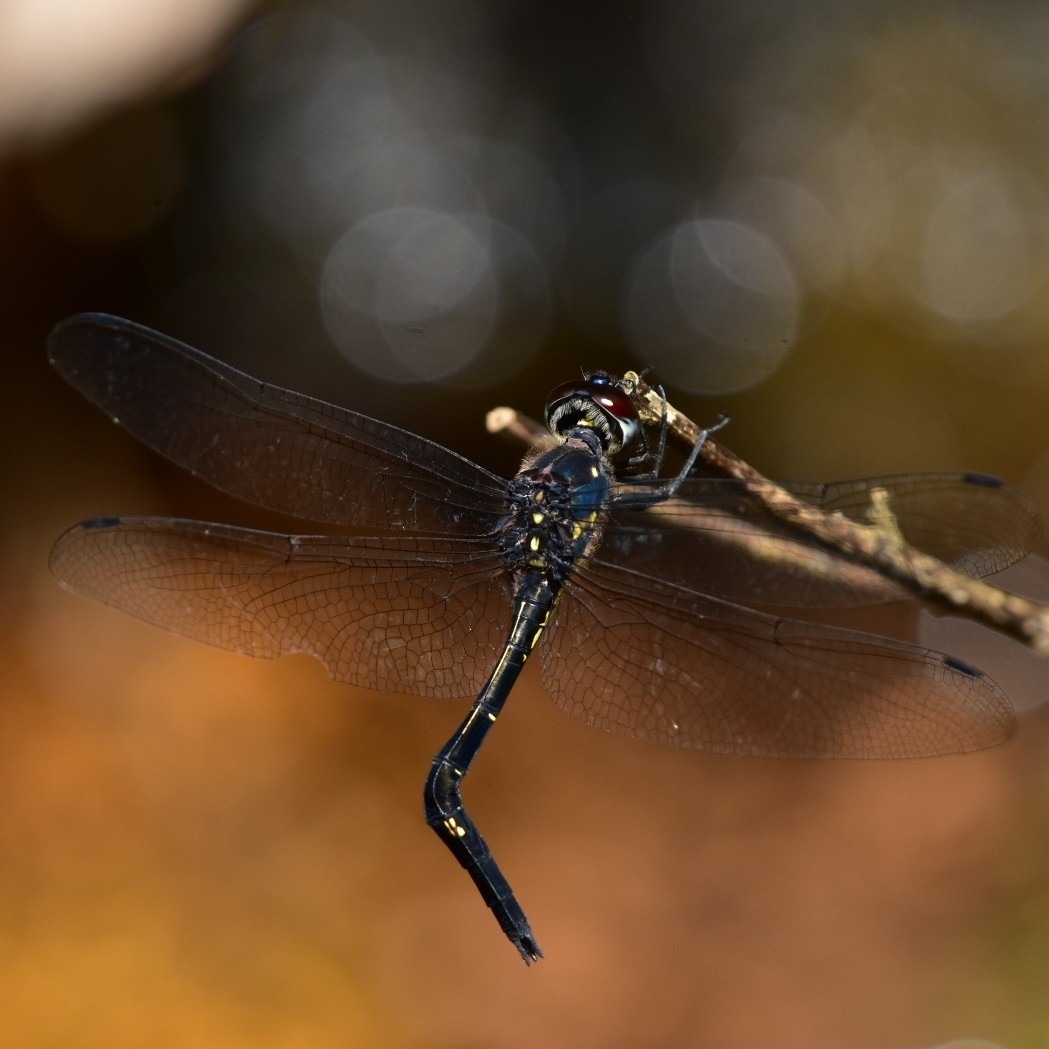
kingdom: Animalia
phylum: Arthropoda
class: Insecta
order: Odonata
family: Libellulidae
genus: Zygonyx
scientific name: Zygonyx iris
